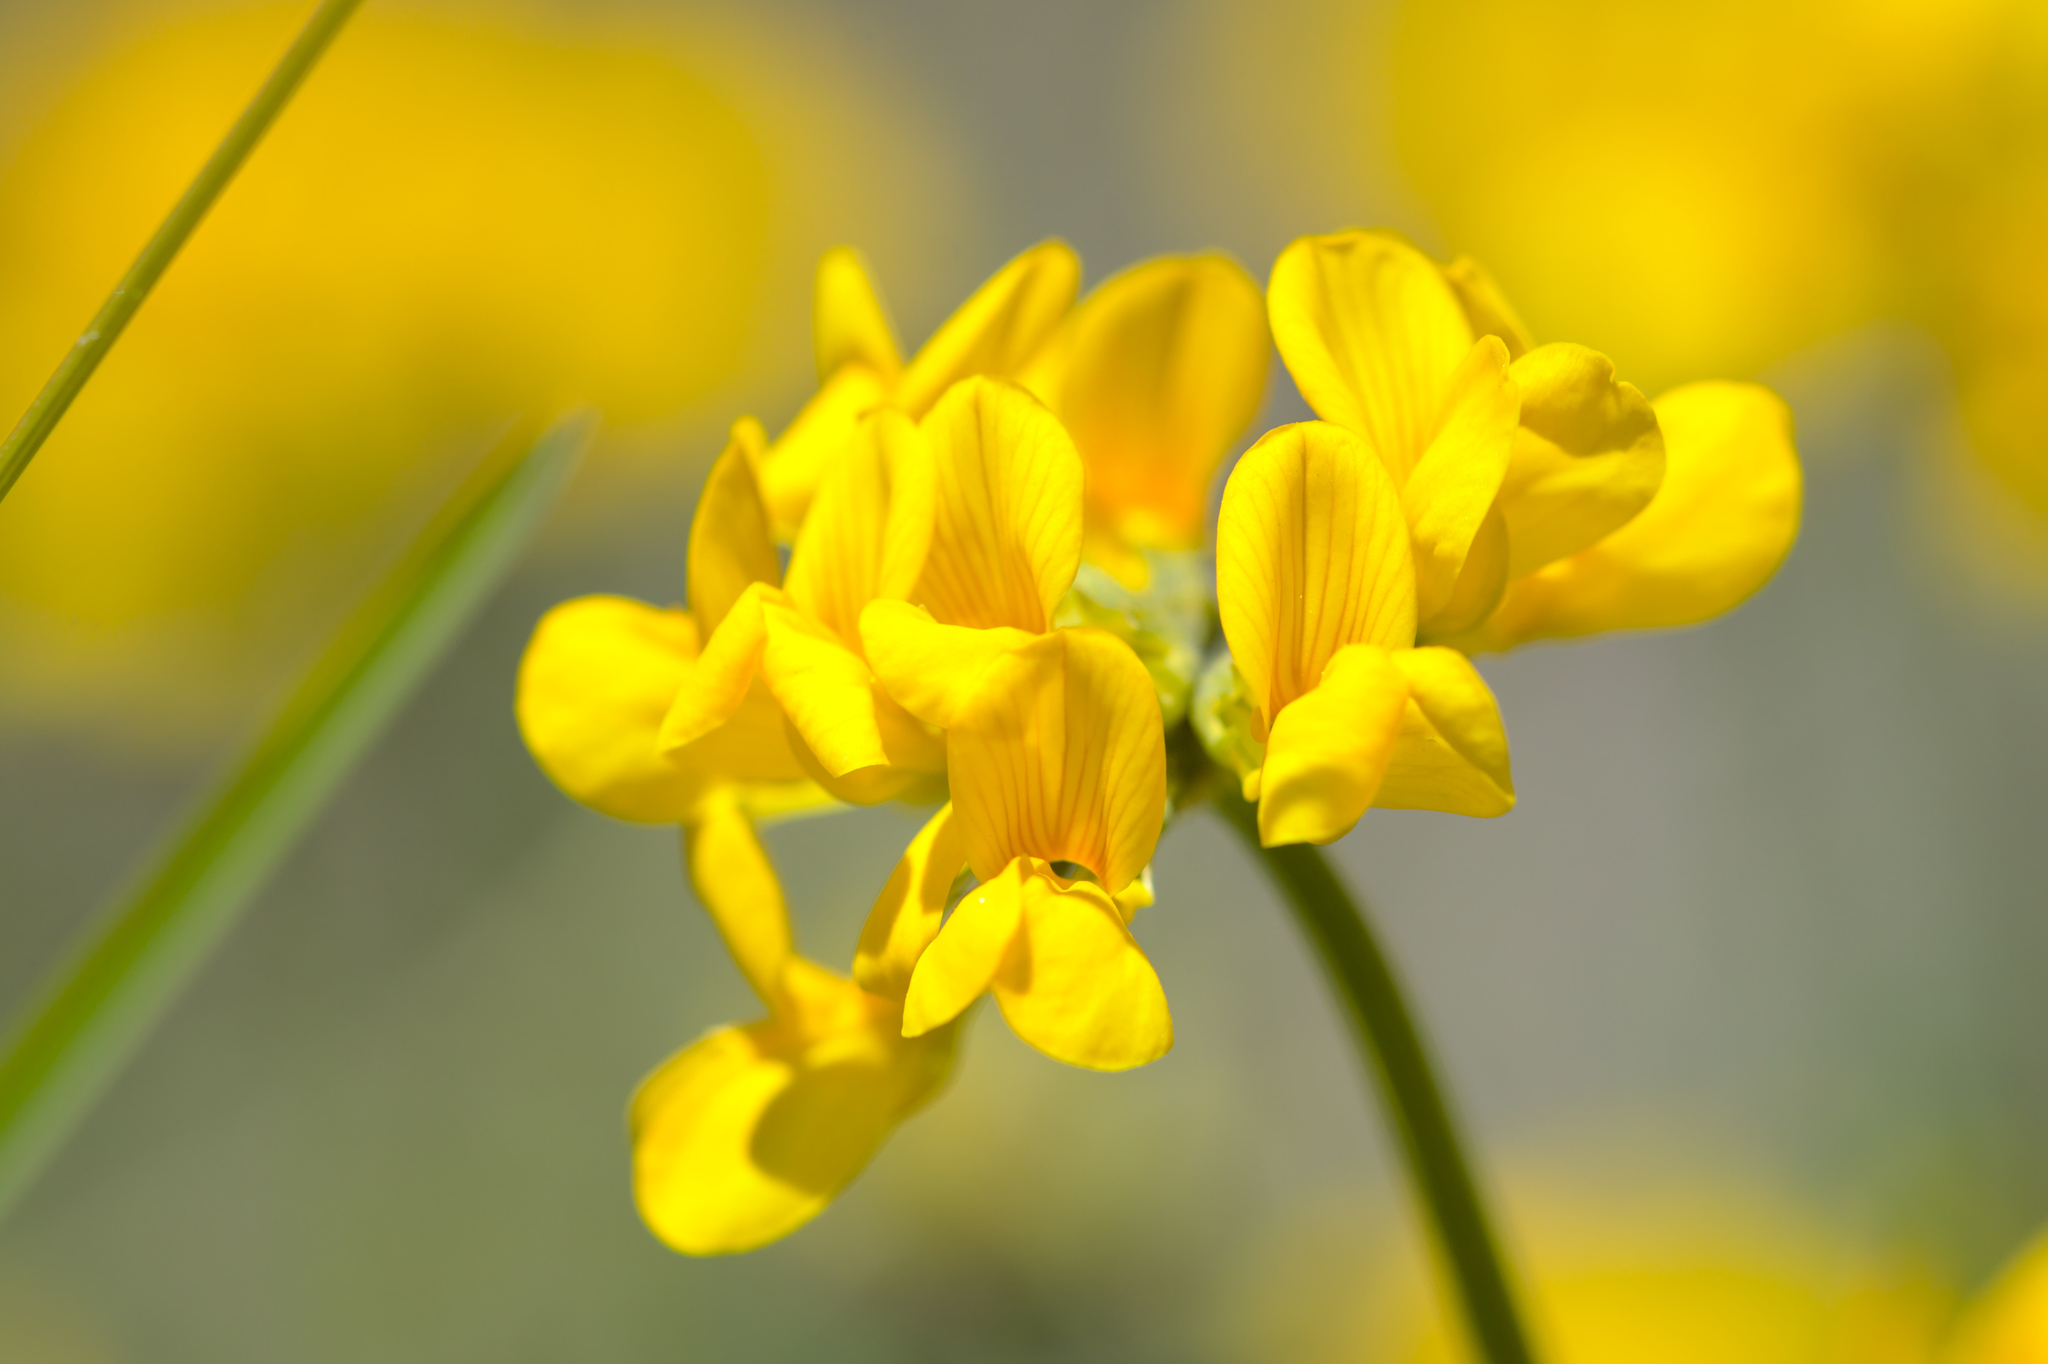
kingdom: Plantae
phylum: Tracheophyta
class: Magnoliopsida
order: Fabales
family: Fabaceae
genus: Hippocrepis
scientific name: Hippocrepis comosa
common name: Horseshoe vetch
